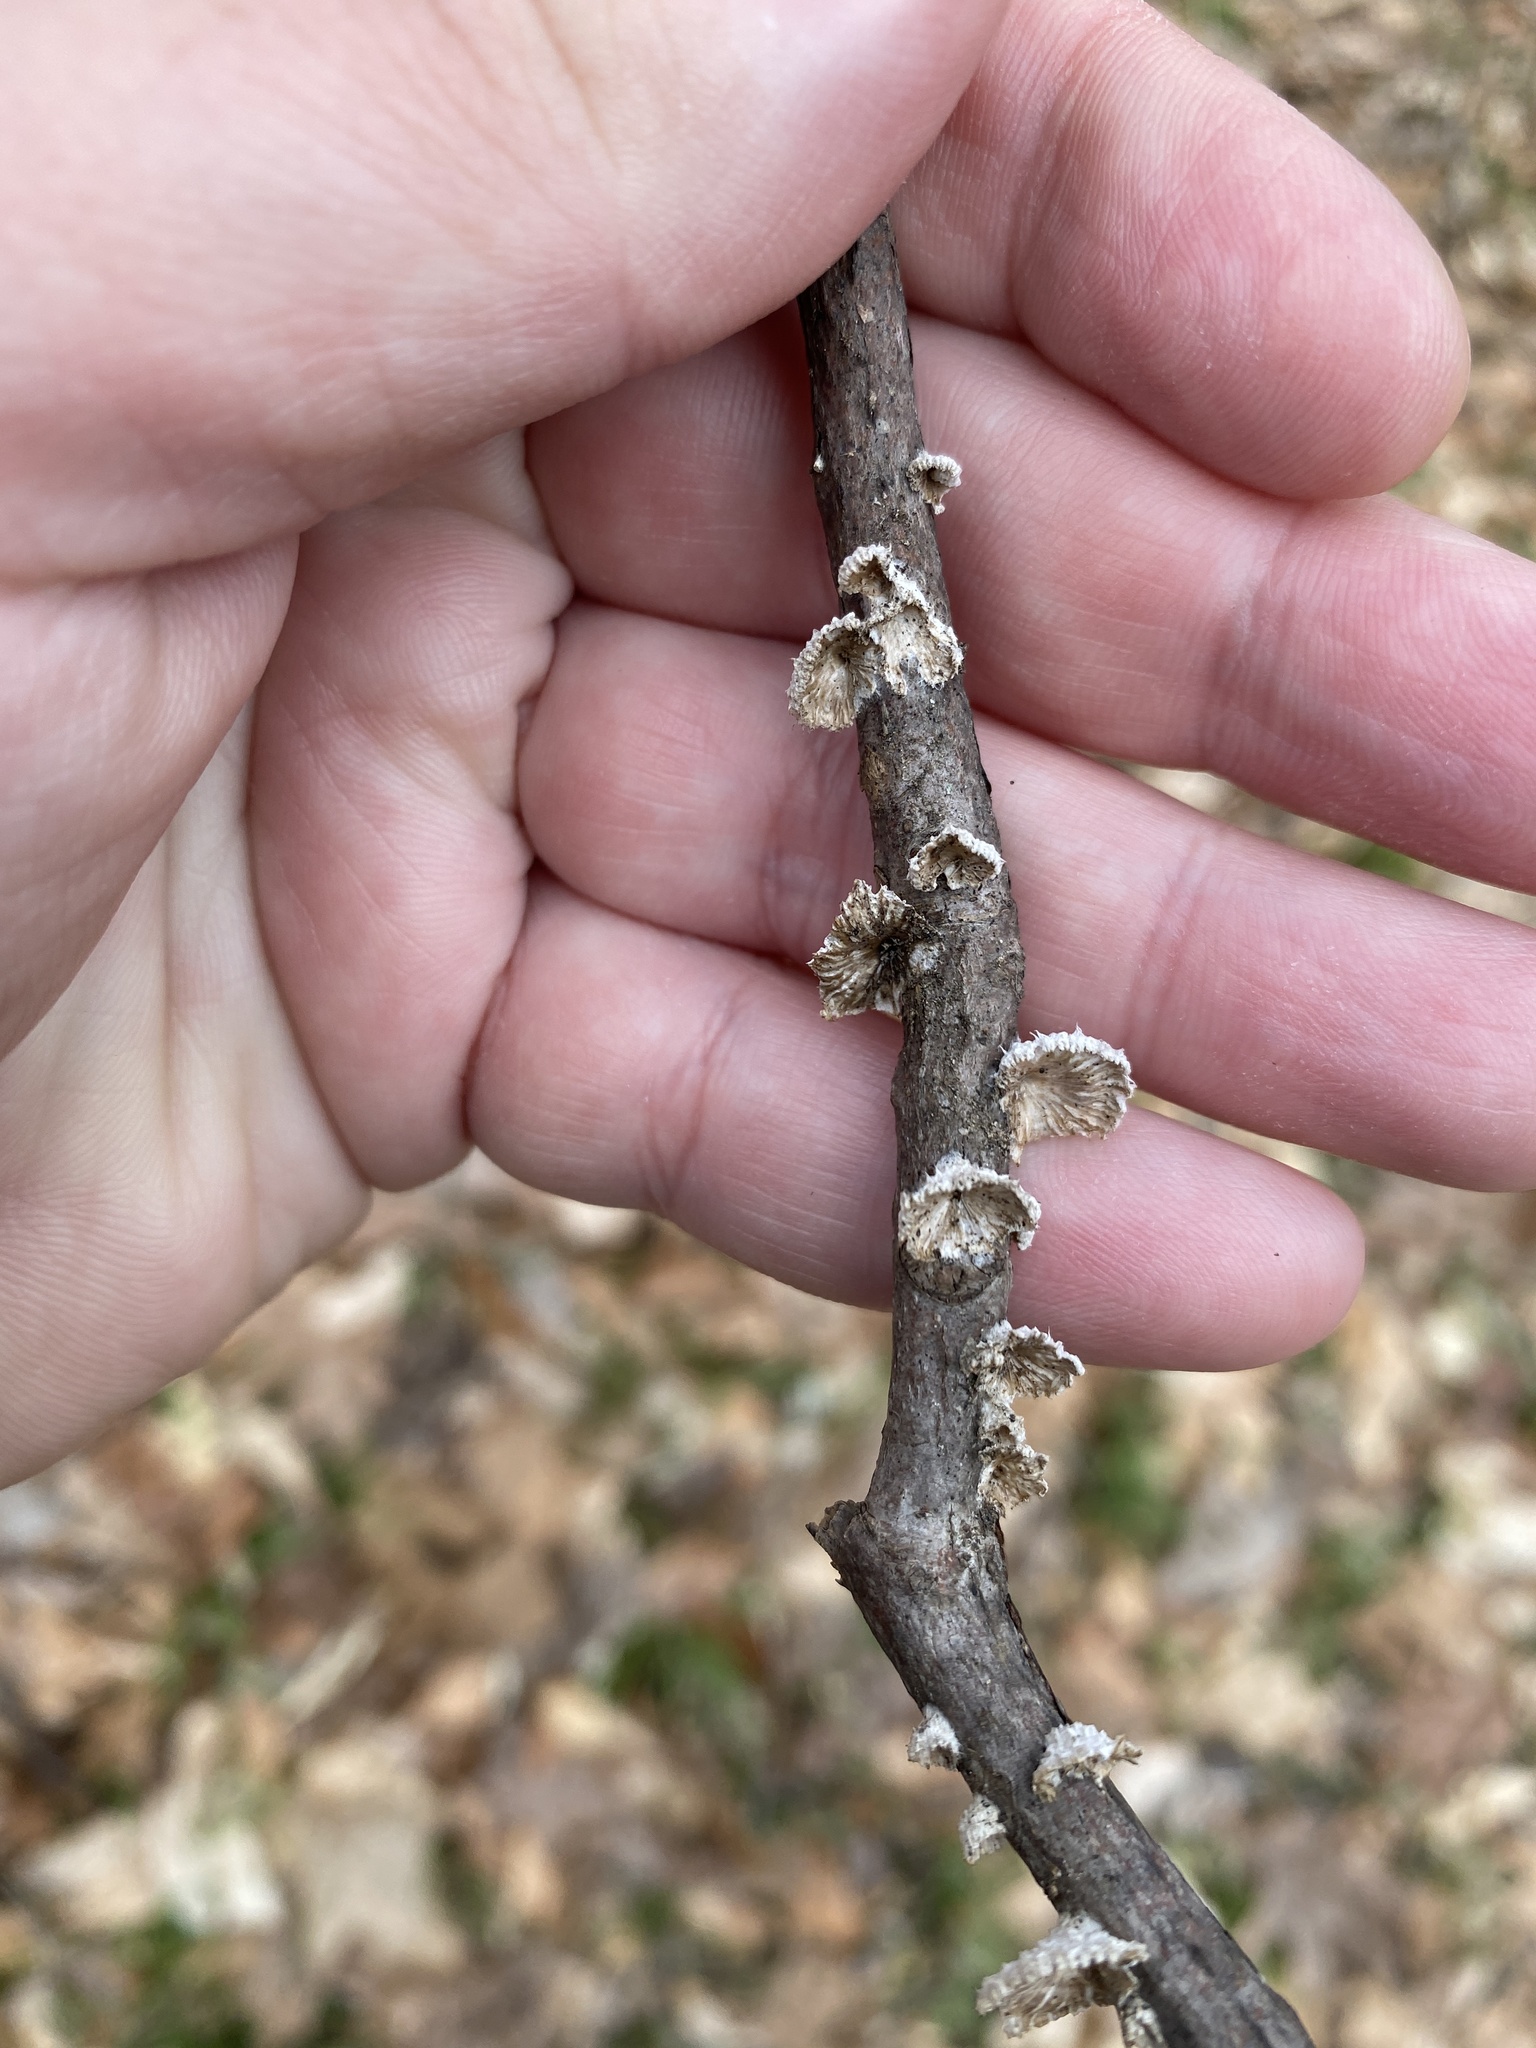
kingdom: Fungi
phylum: Basidiomycota
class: Agaricomycetes
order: Agaricales
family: Schizophyllaceae
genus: Schizophyllum
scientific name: Schizophyllum commune
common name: Common porecrust
